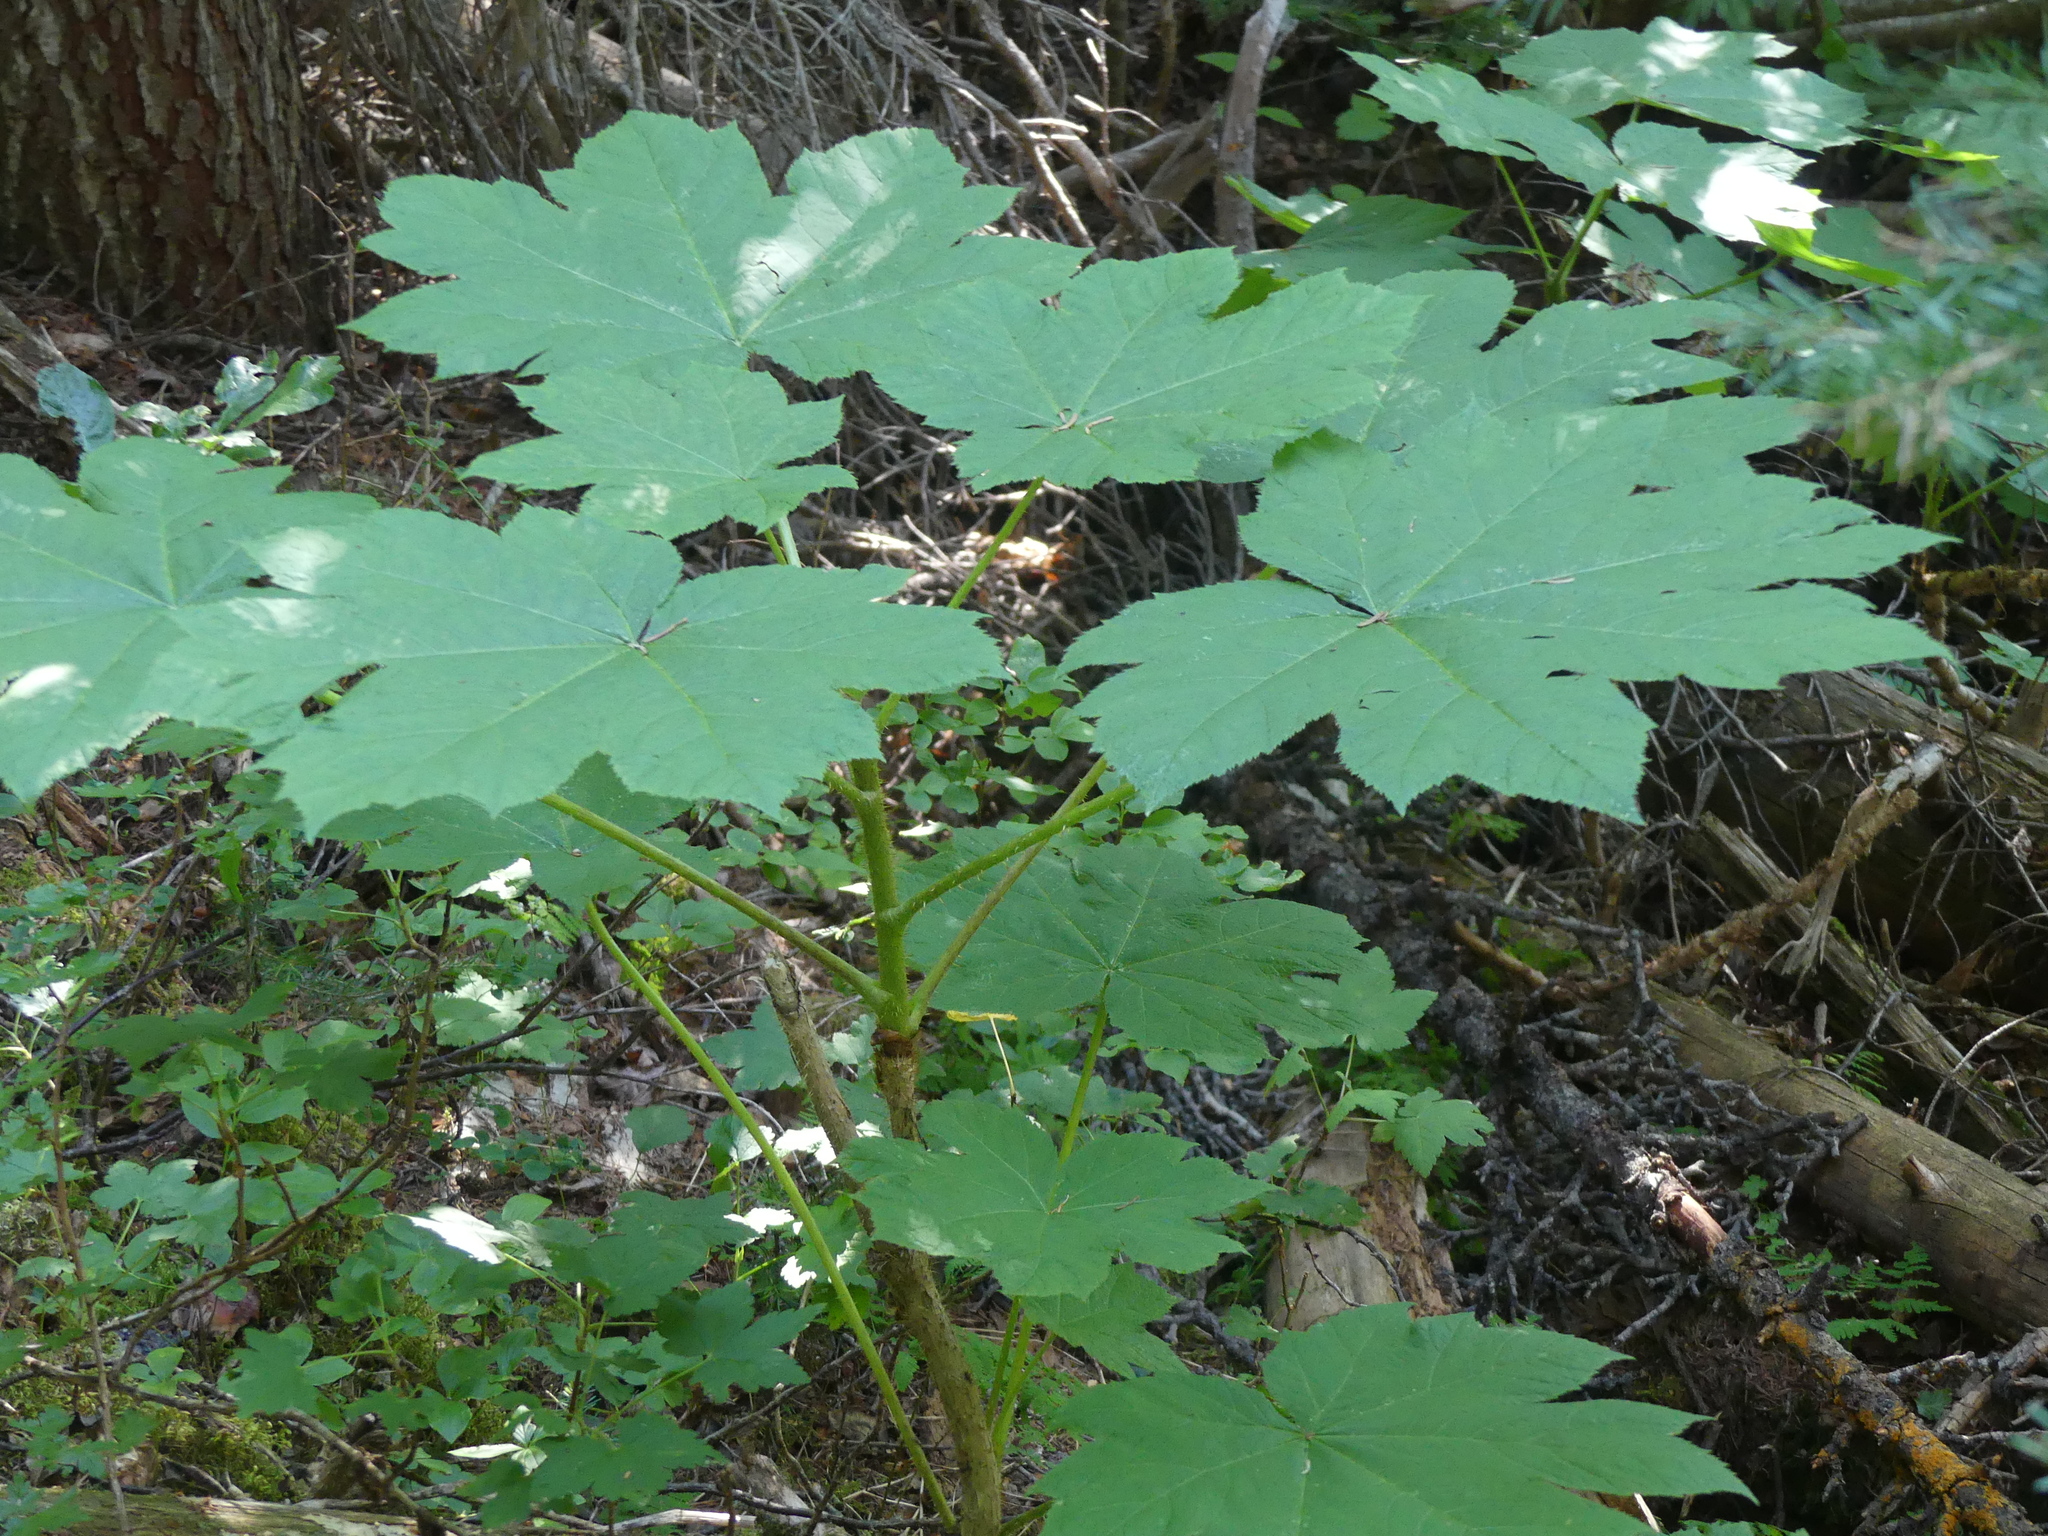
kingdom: Plantae
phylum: Tracheophyta
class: Magnoliopsida
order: Apiales
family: Araliaceae
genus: Oplopanax
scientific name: Oplopanax horridus
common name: Devil's walking-stick
